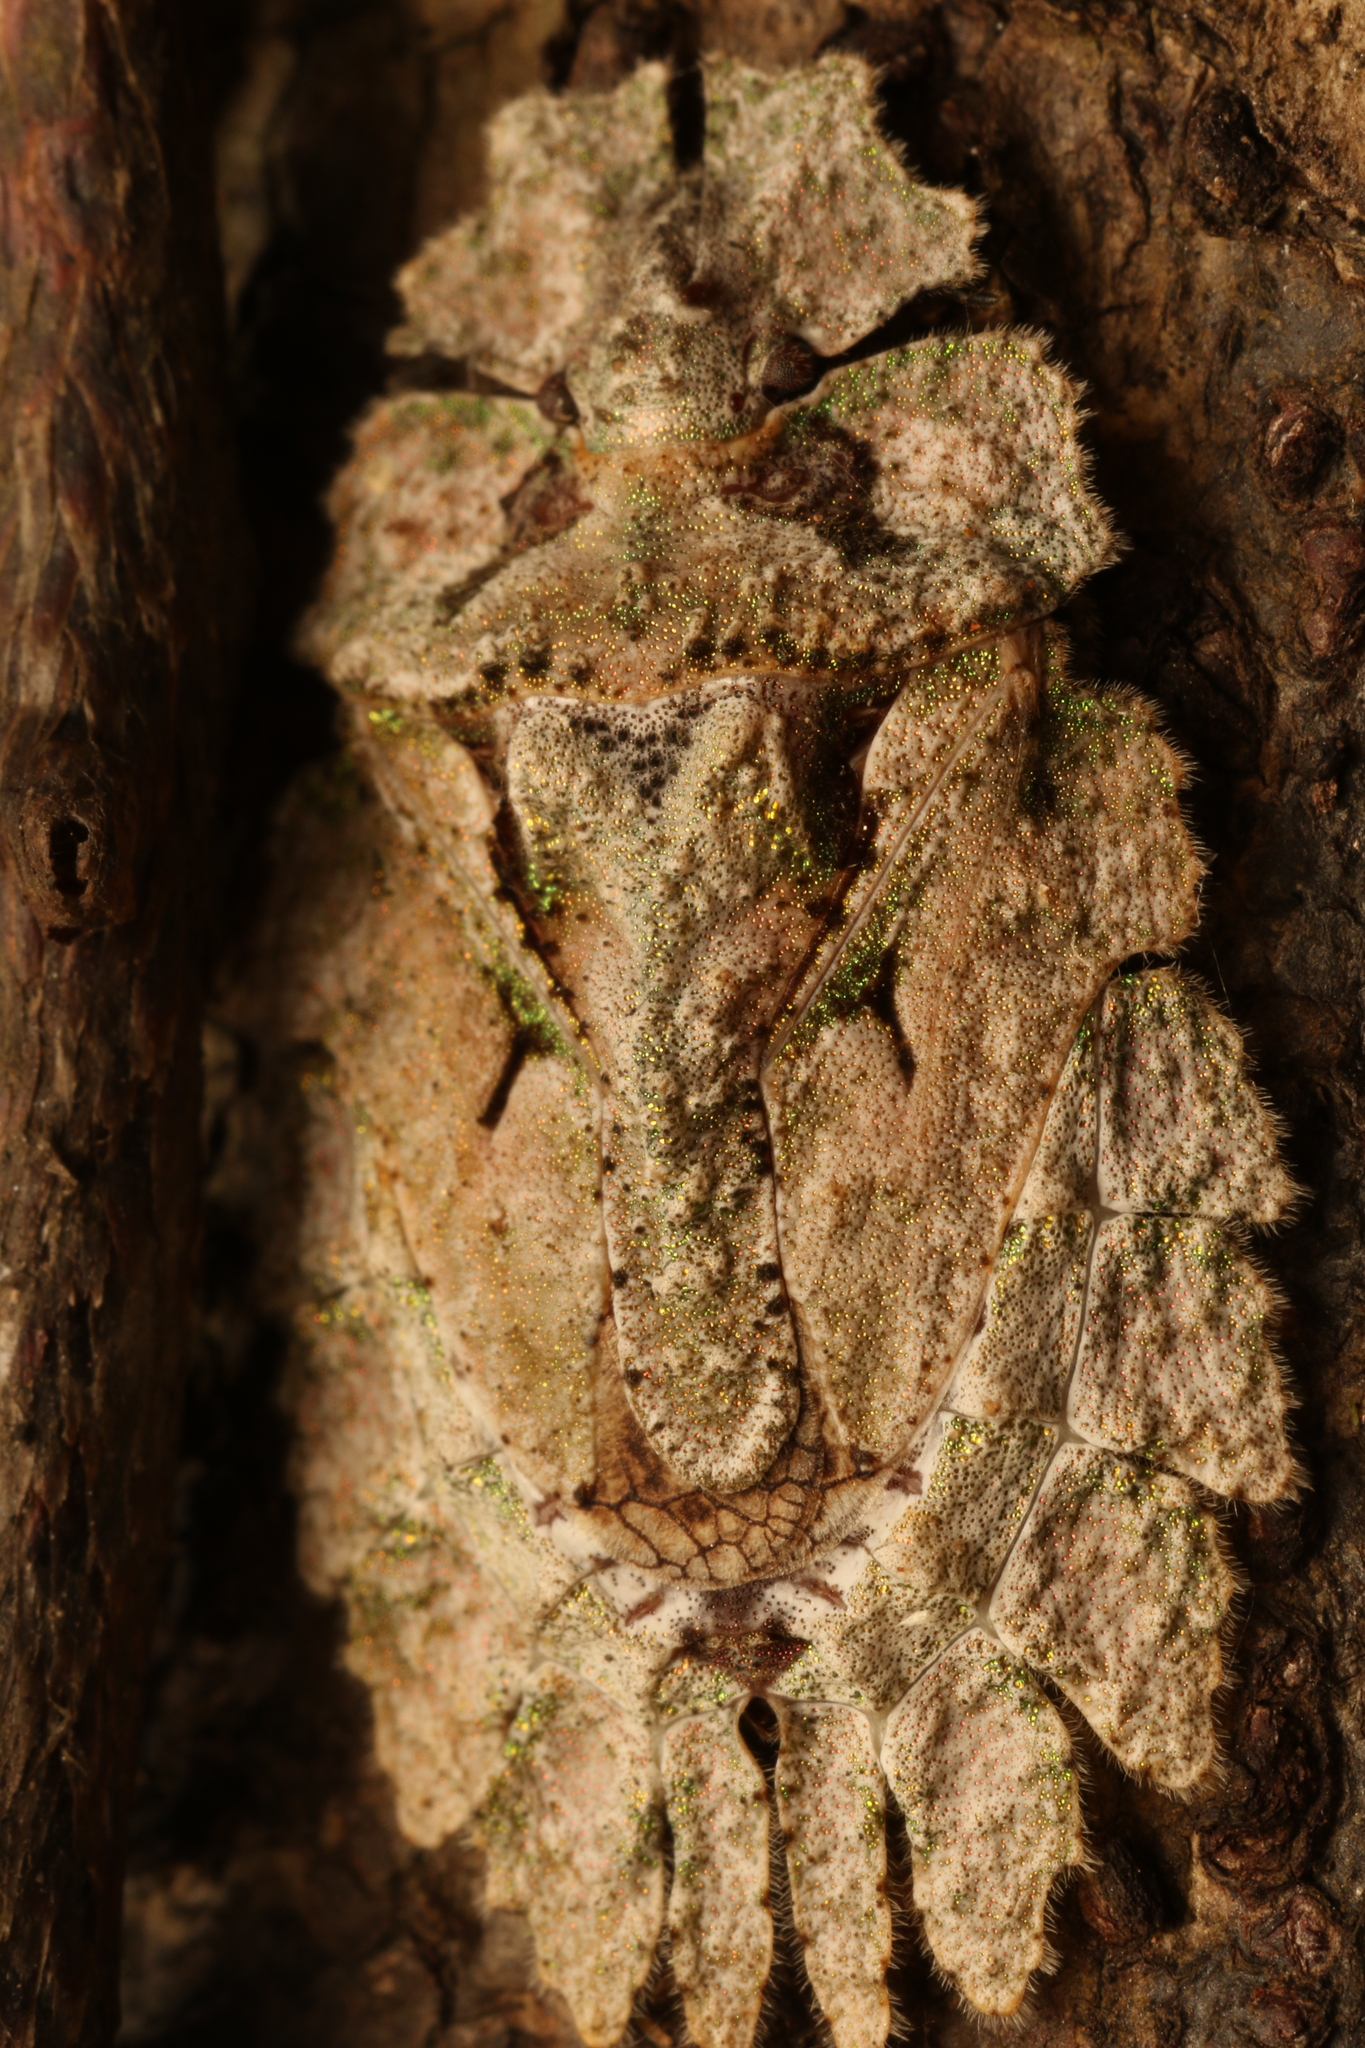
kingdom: Animalia
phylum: Arthropoda
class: Insecta
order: Hemiptera
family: Phloeidae
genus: Phloeophana
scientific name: Phloeophana longirostris
